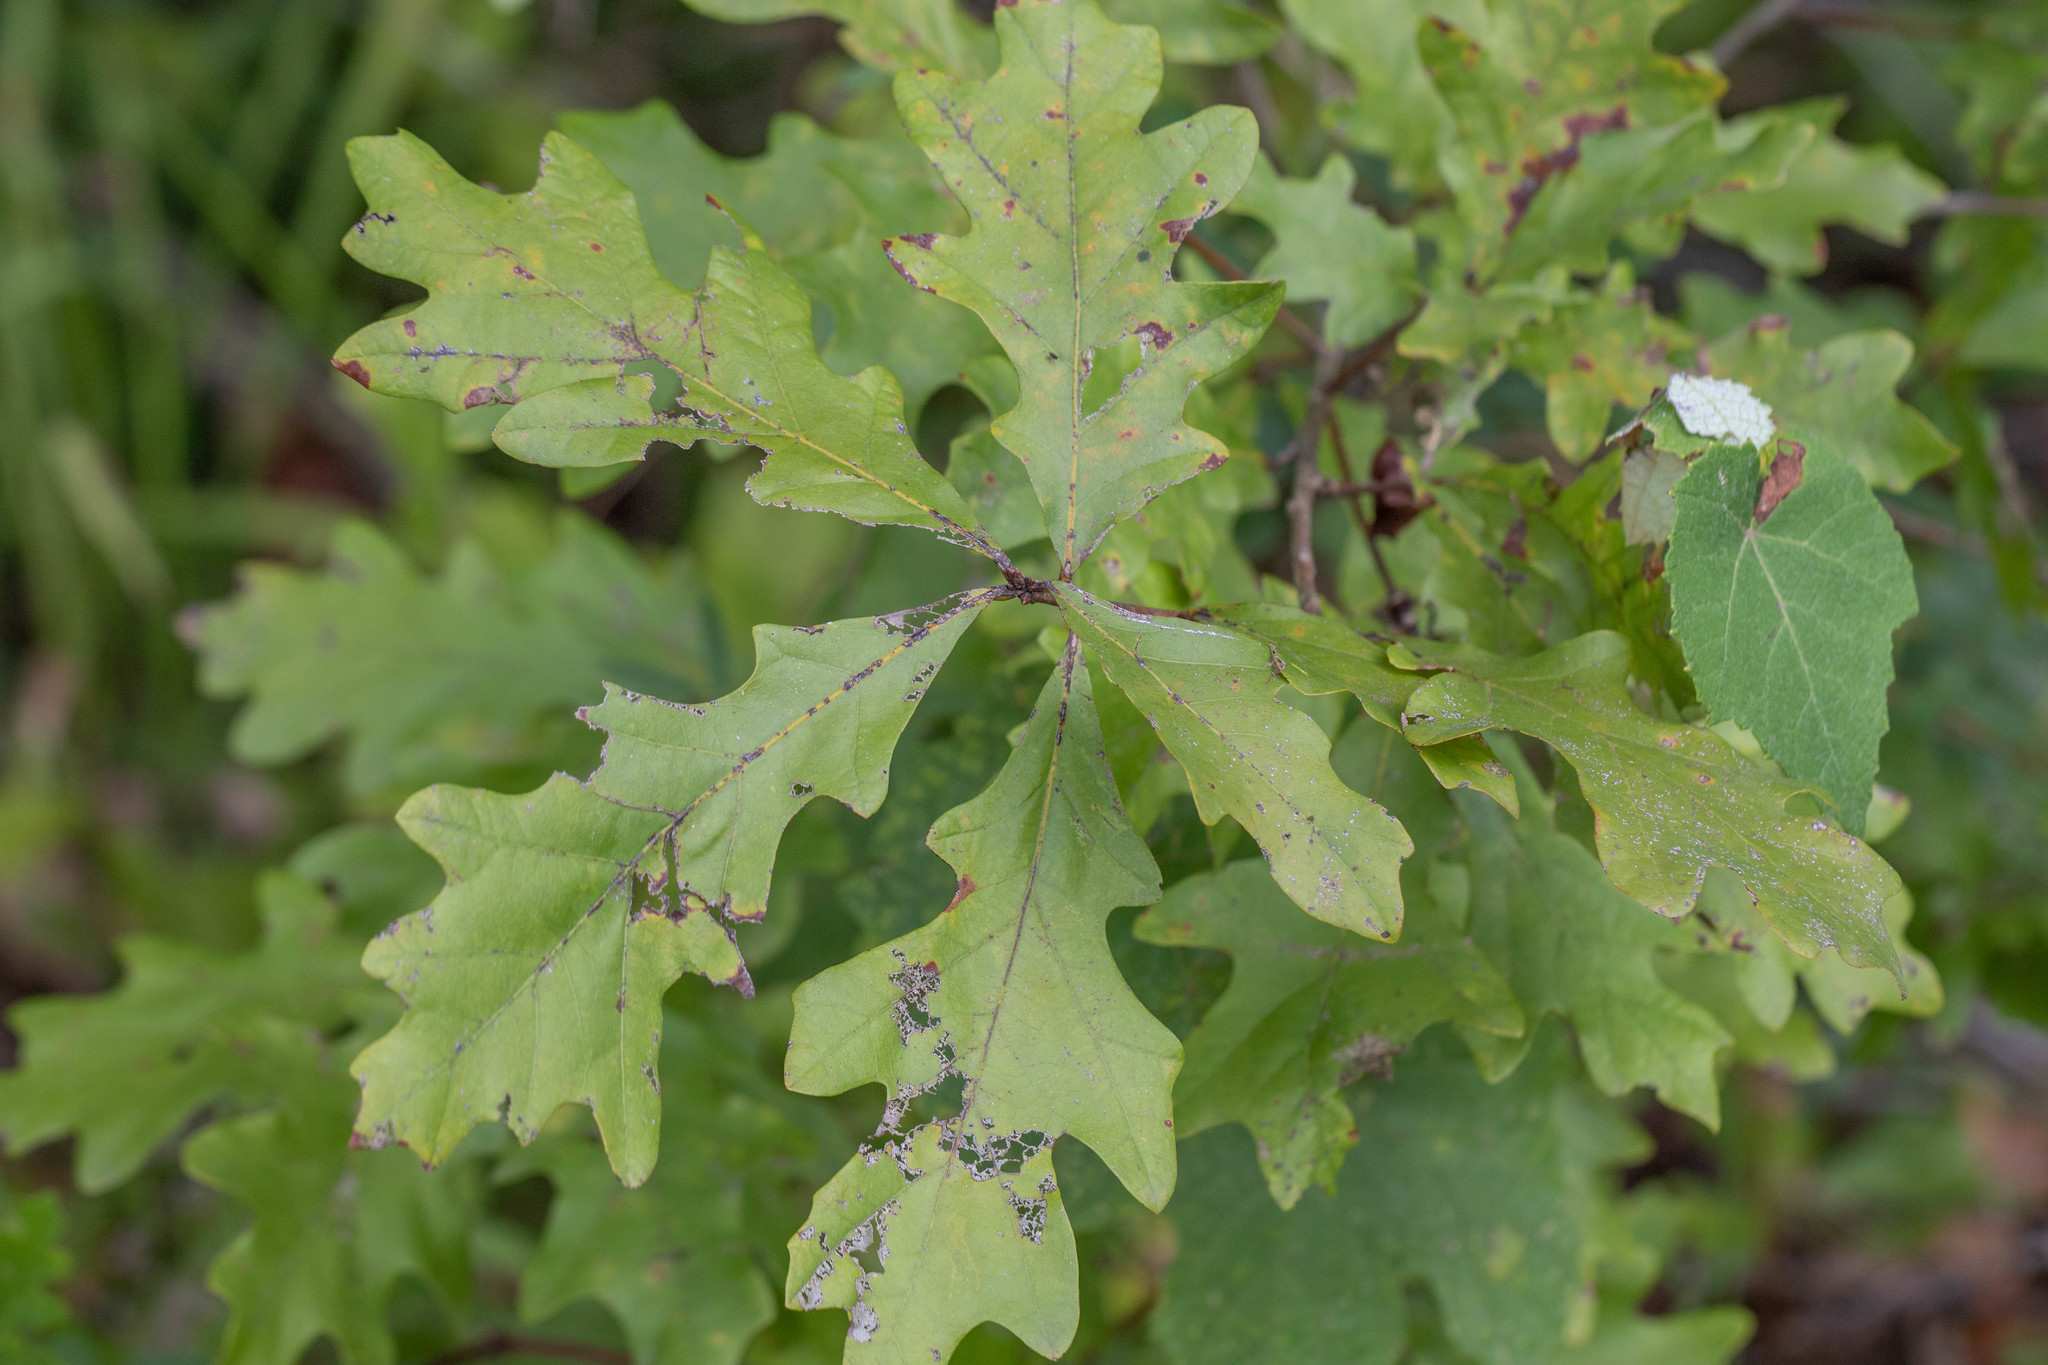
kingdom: Plantae
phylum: Tracheophyta
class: Magnoliopsida
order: Fagales
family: Fagaceae
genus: Quercus
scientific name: Quercus alba
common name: White oak
